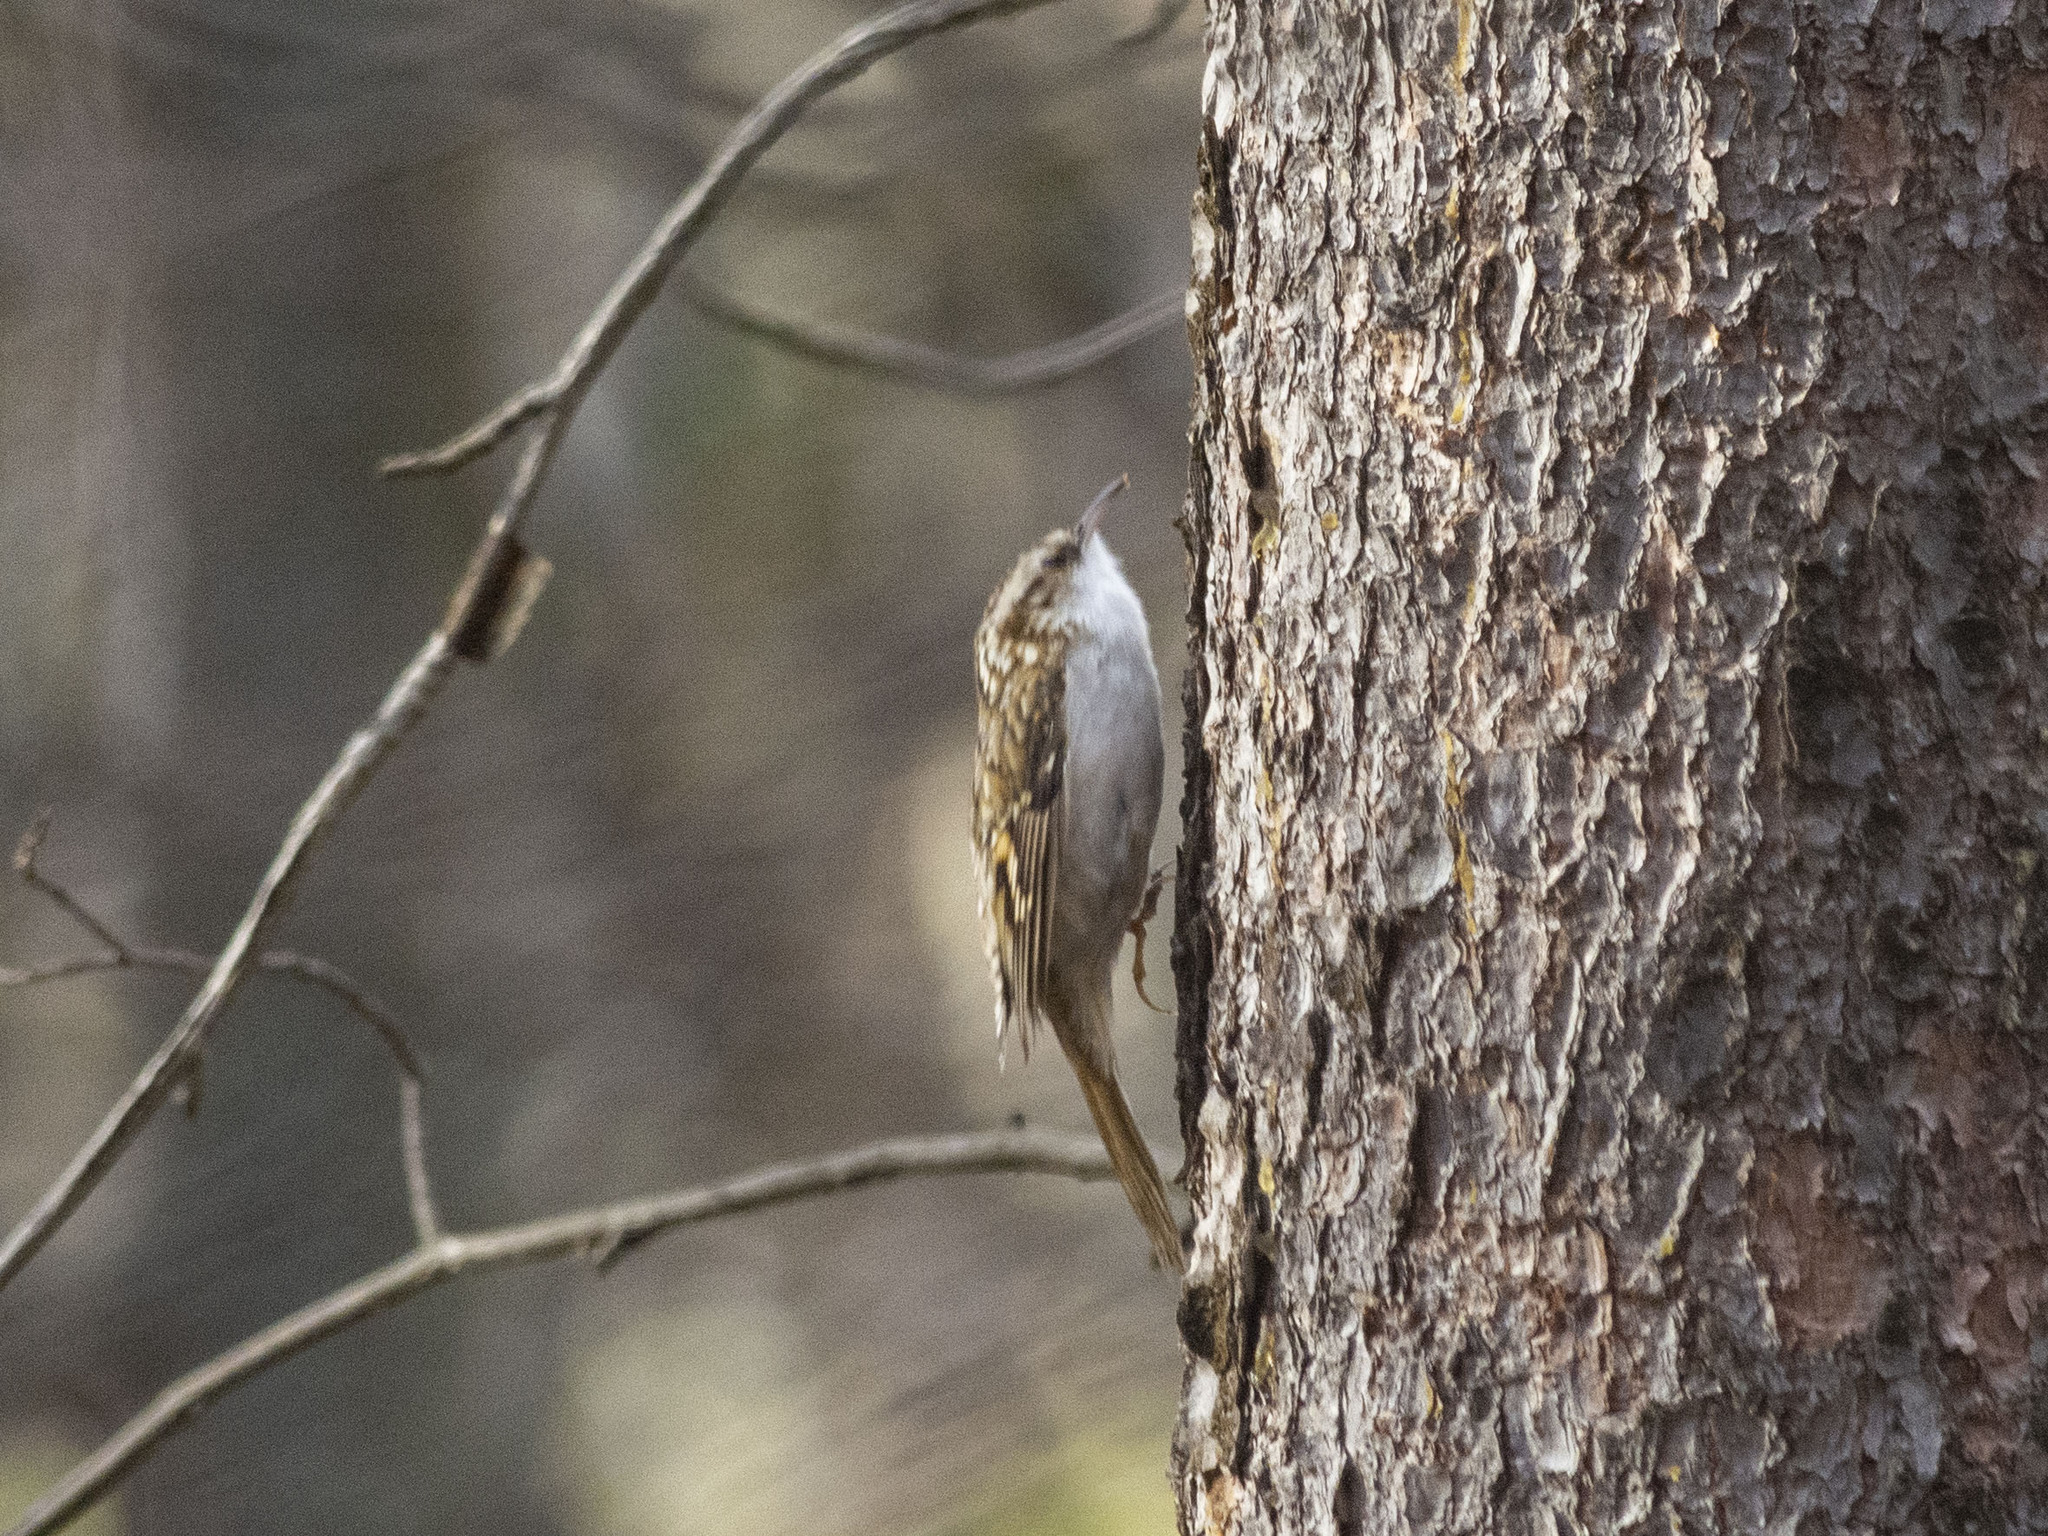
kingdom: Animalia
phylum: Chordata
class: Aves
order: Passeriformes
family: Certhiidae
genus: Certhia
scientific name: Certhia familiaris
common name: Eurasian treecreeper
